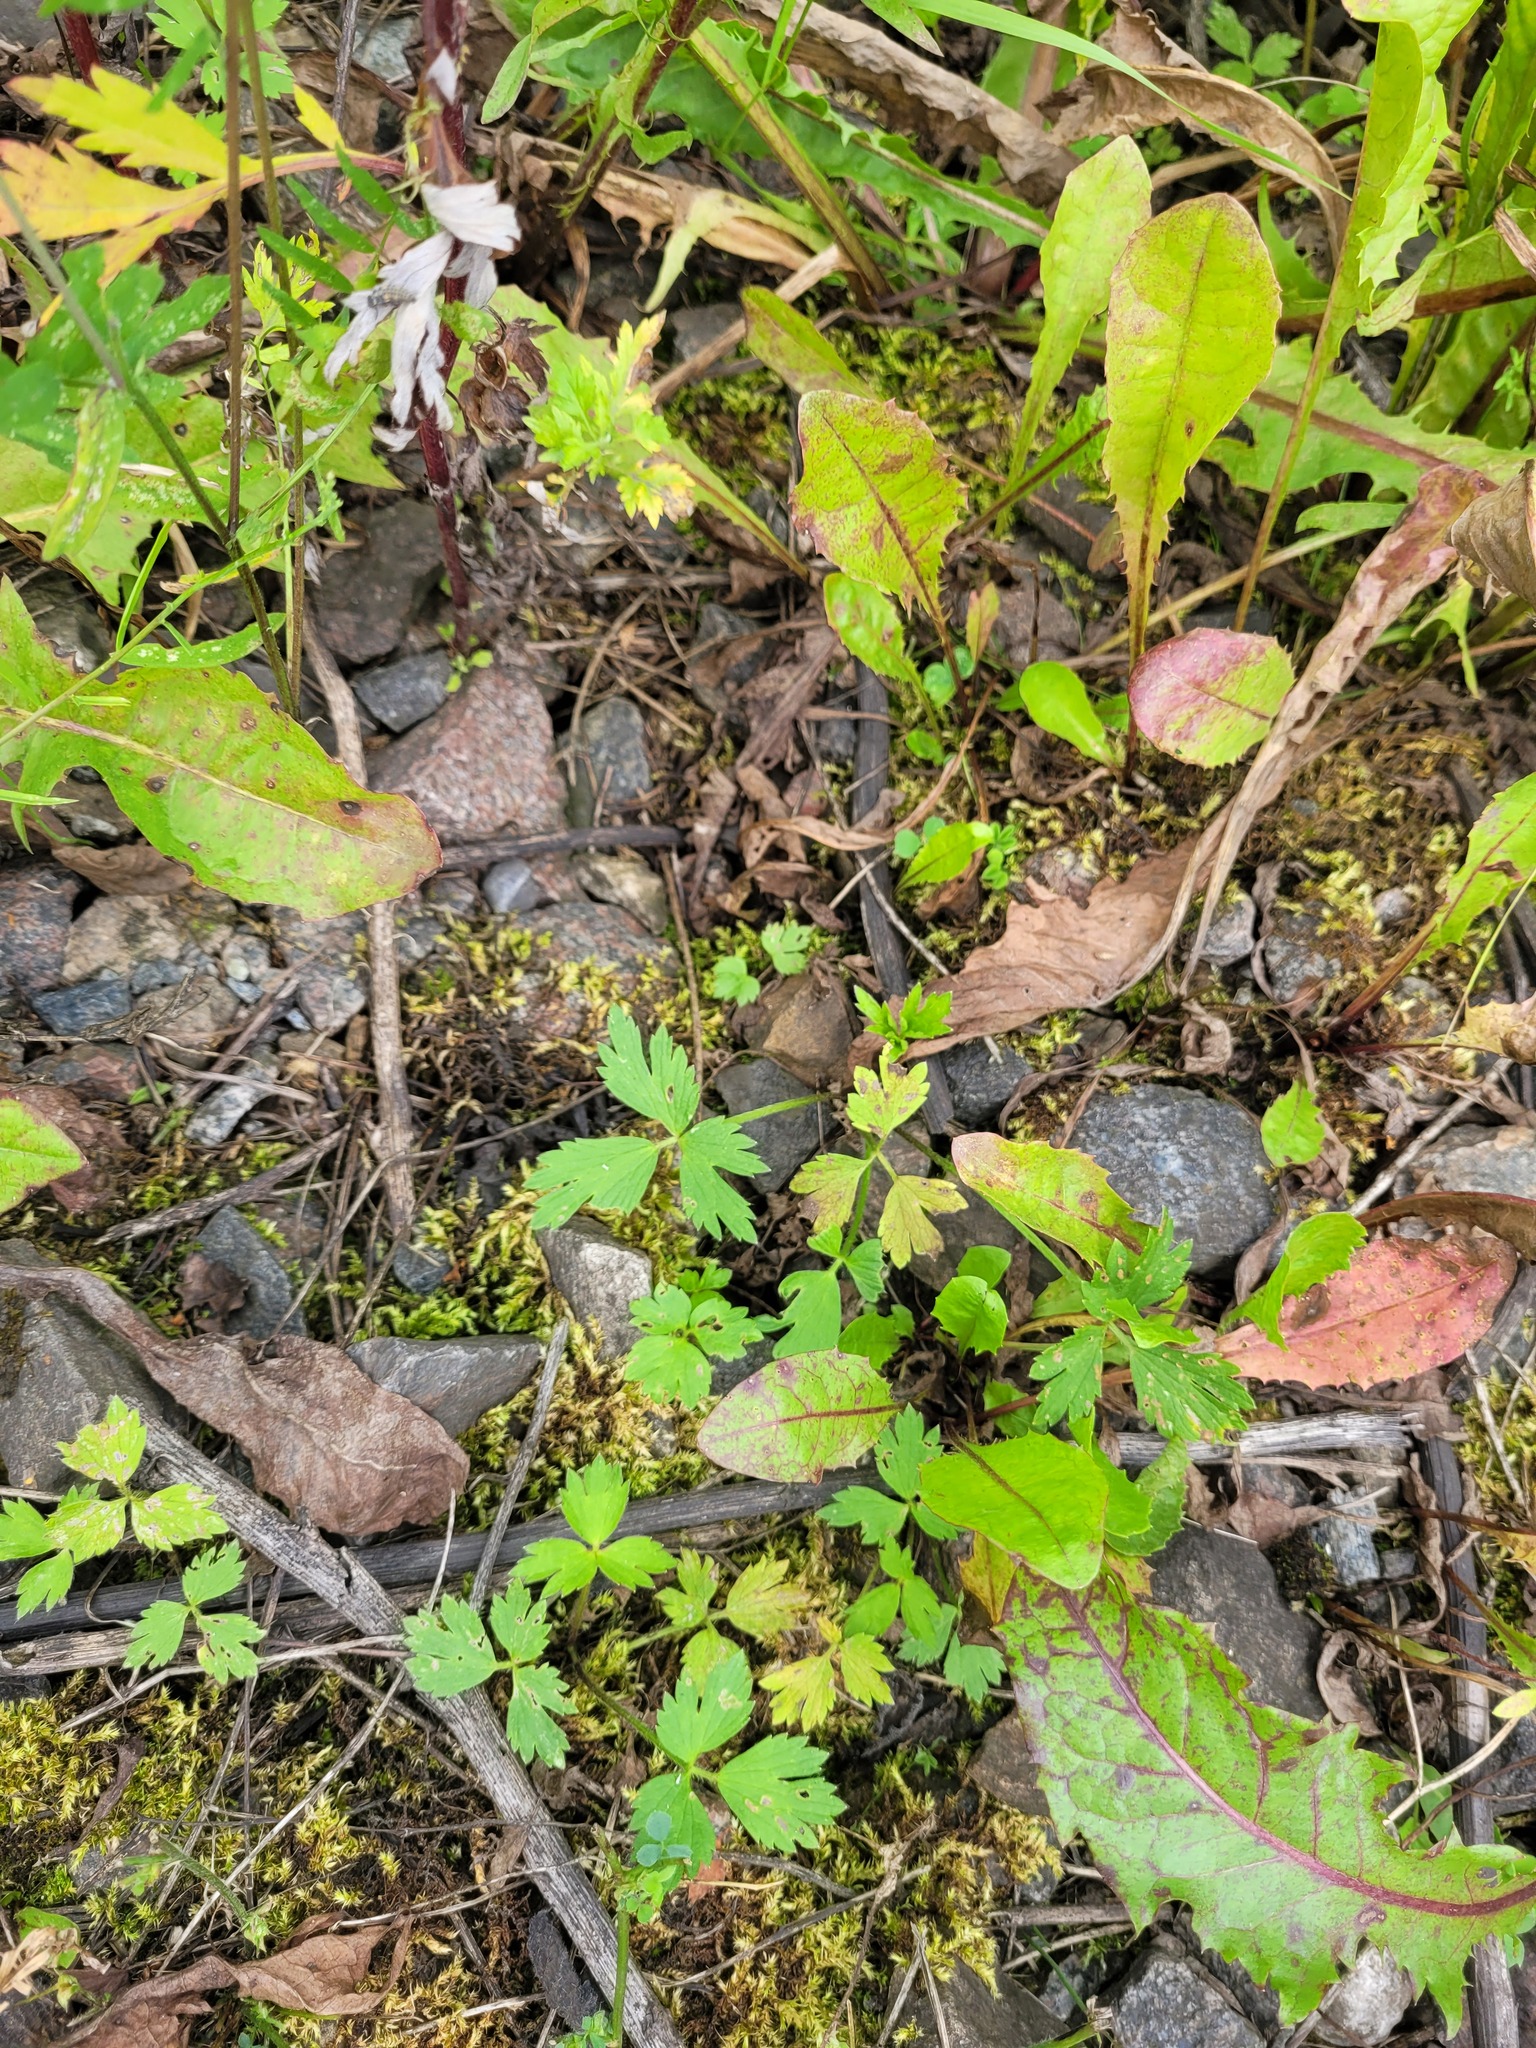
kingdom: Plantae
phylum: Tracheophyta
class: Magnoliopsida
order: Ranunculales
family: Ranunculaceae
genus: Ranunculus
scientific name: Ranunculus repens
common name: Creeping buttercup
